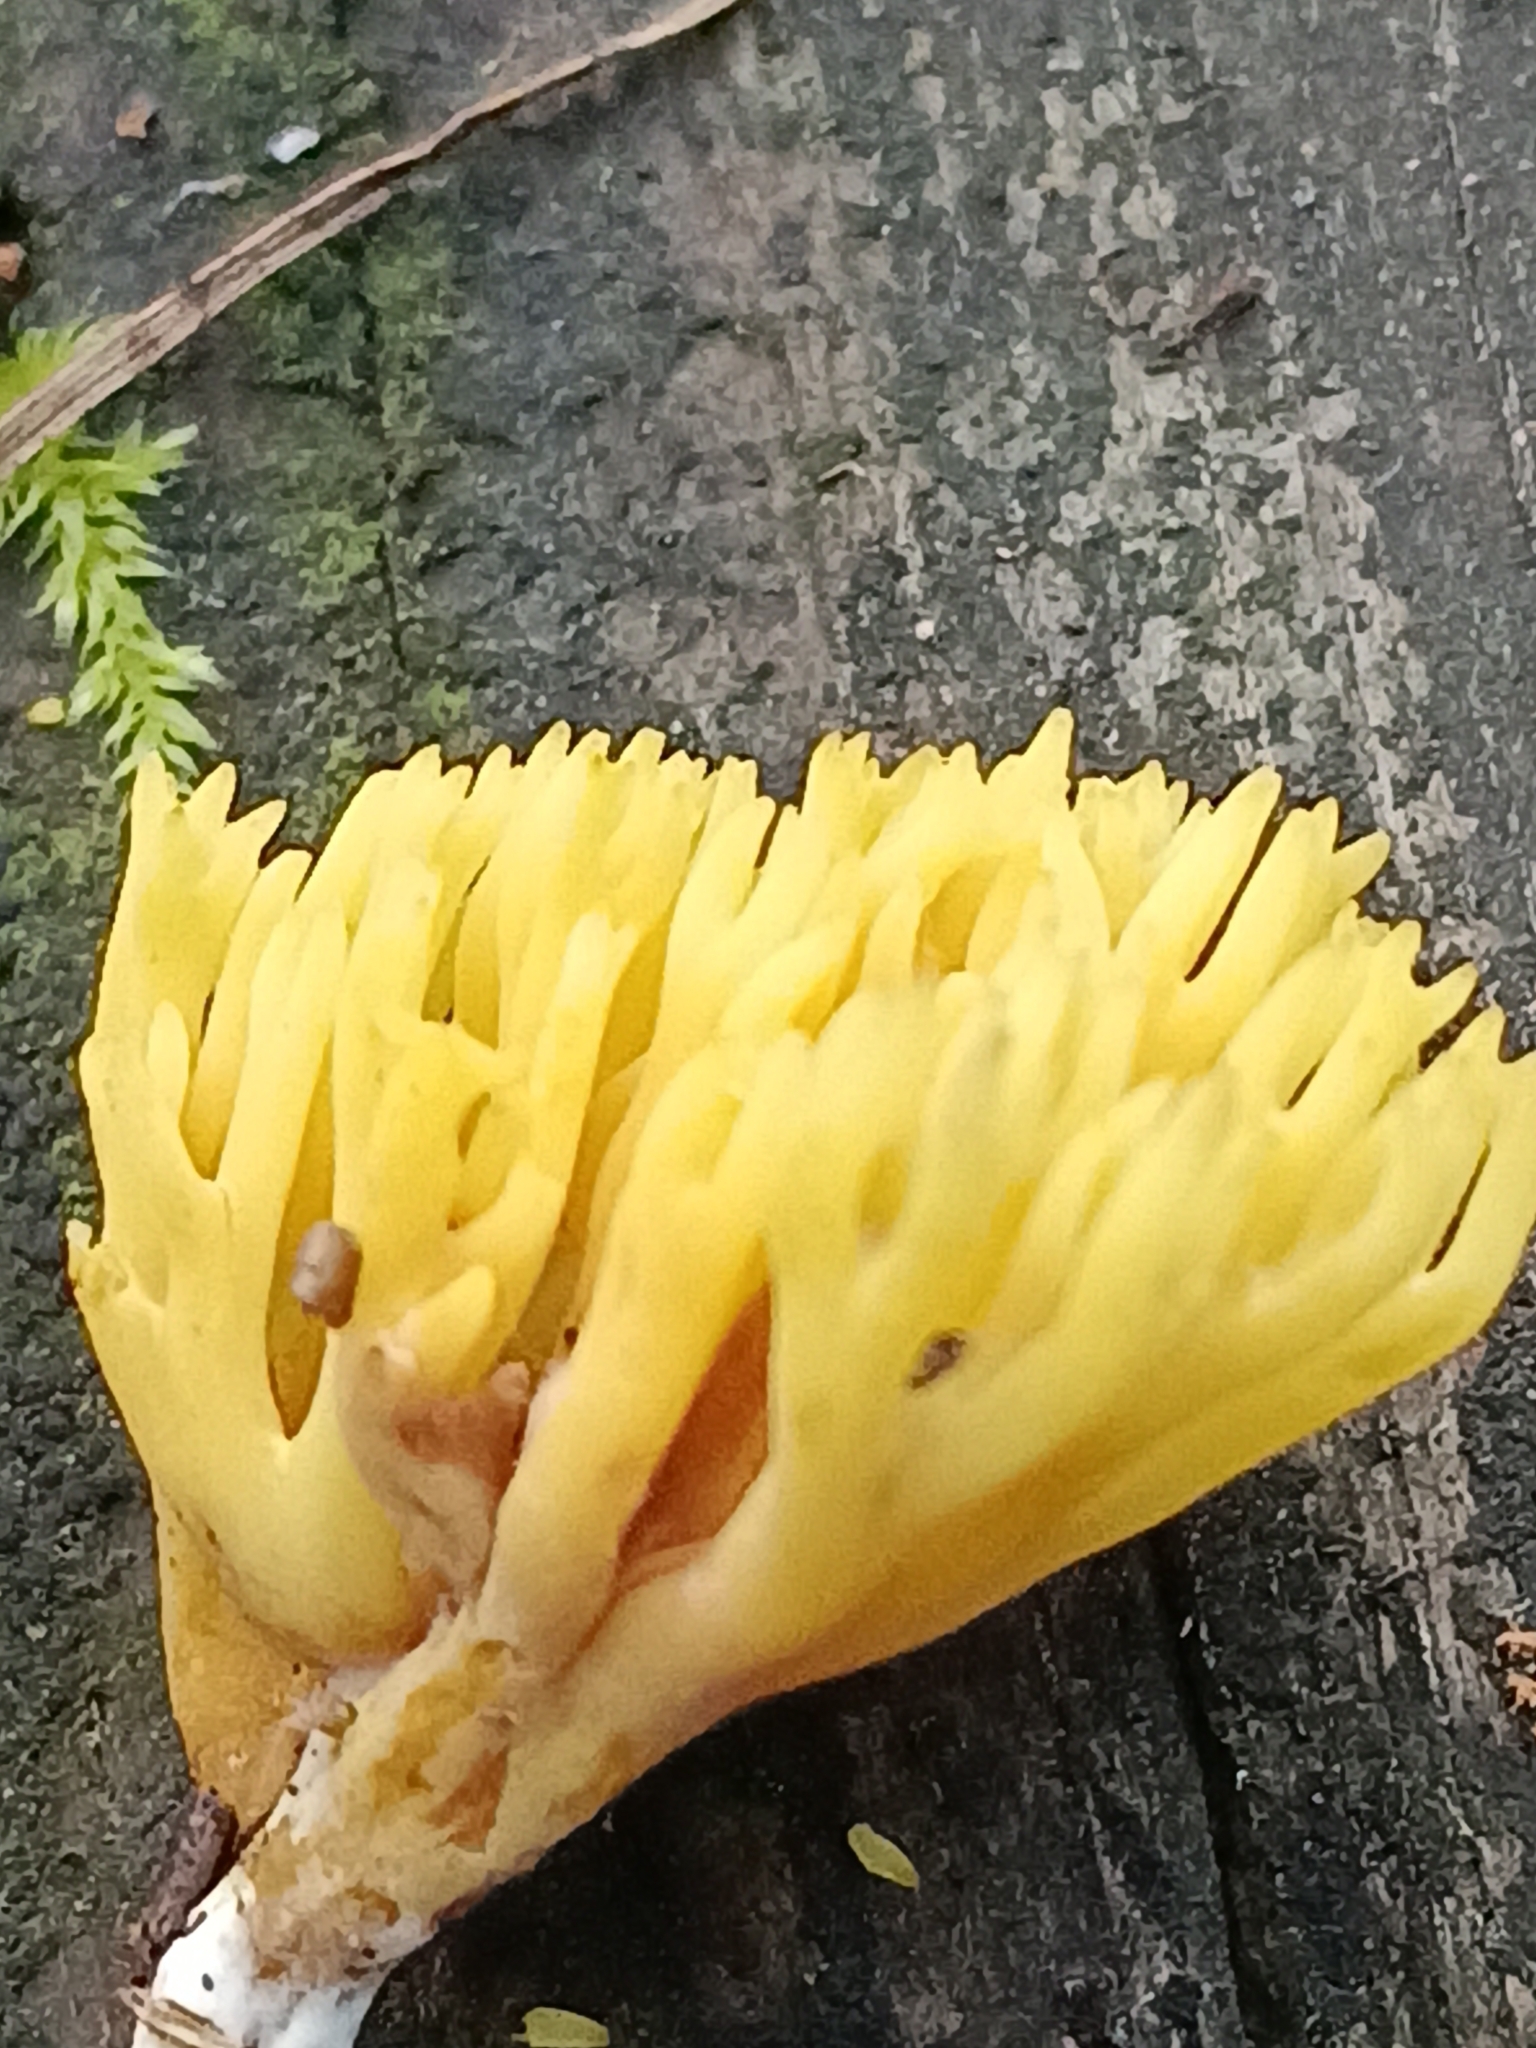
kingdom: Fungi
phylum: Basidiomycota
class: Dacrymycetes
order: Dacrymycetales
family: Dacrymycetaceae
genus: Calocera
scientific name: Calocera viscosa
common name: Yellow stagshorn
